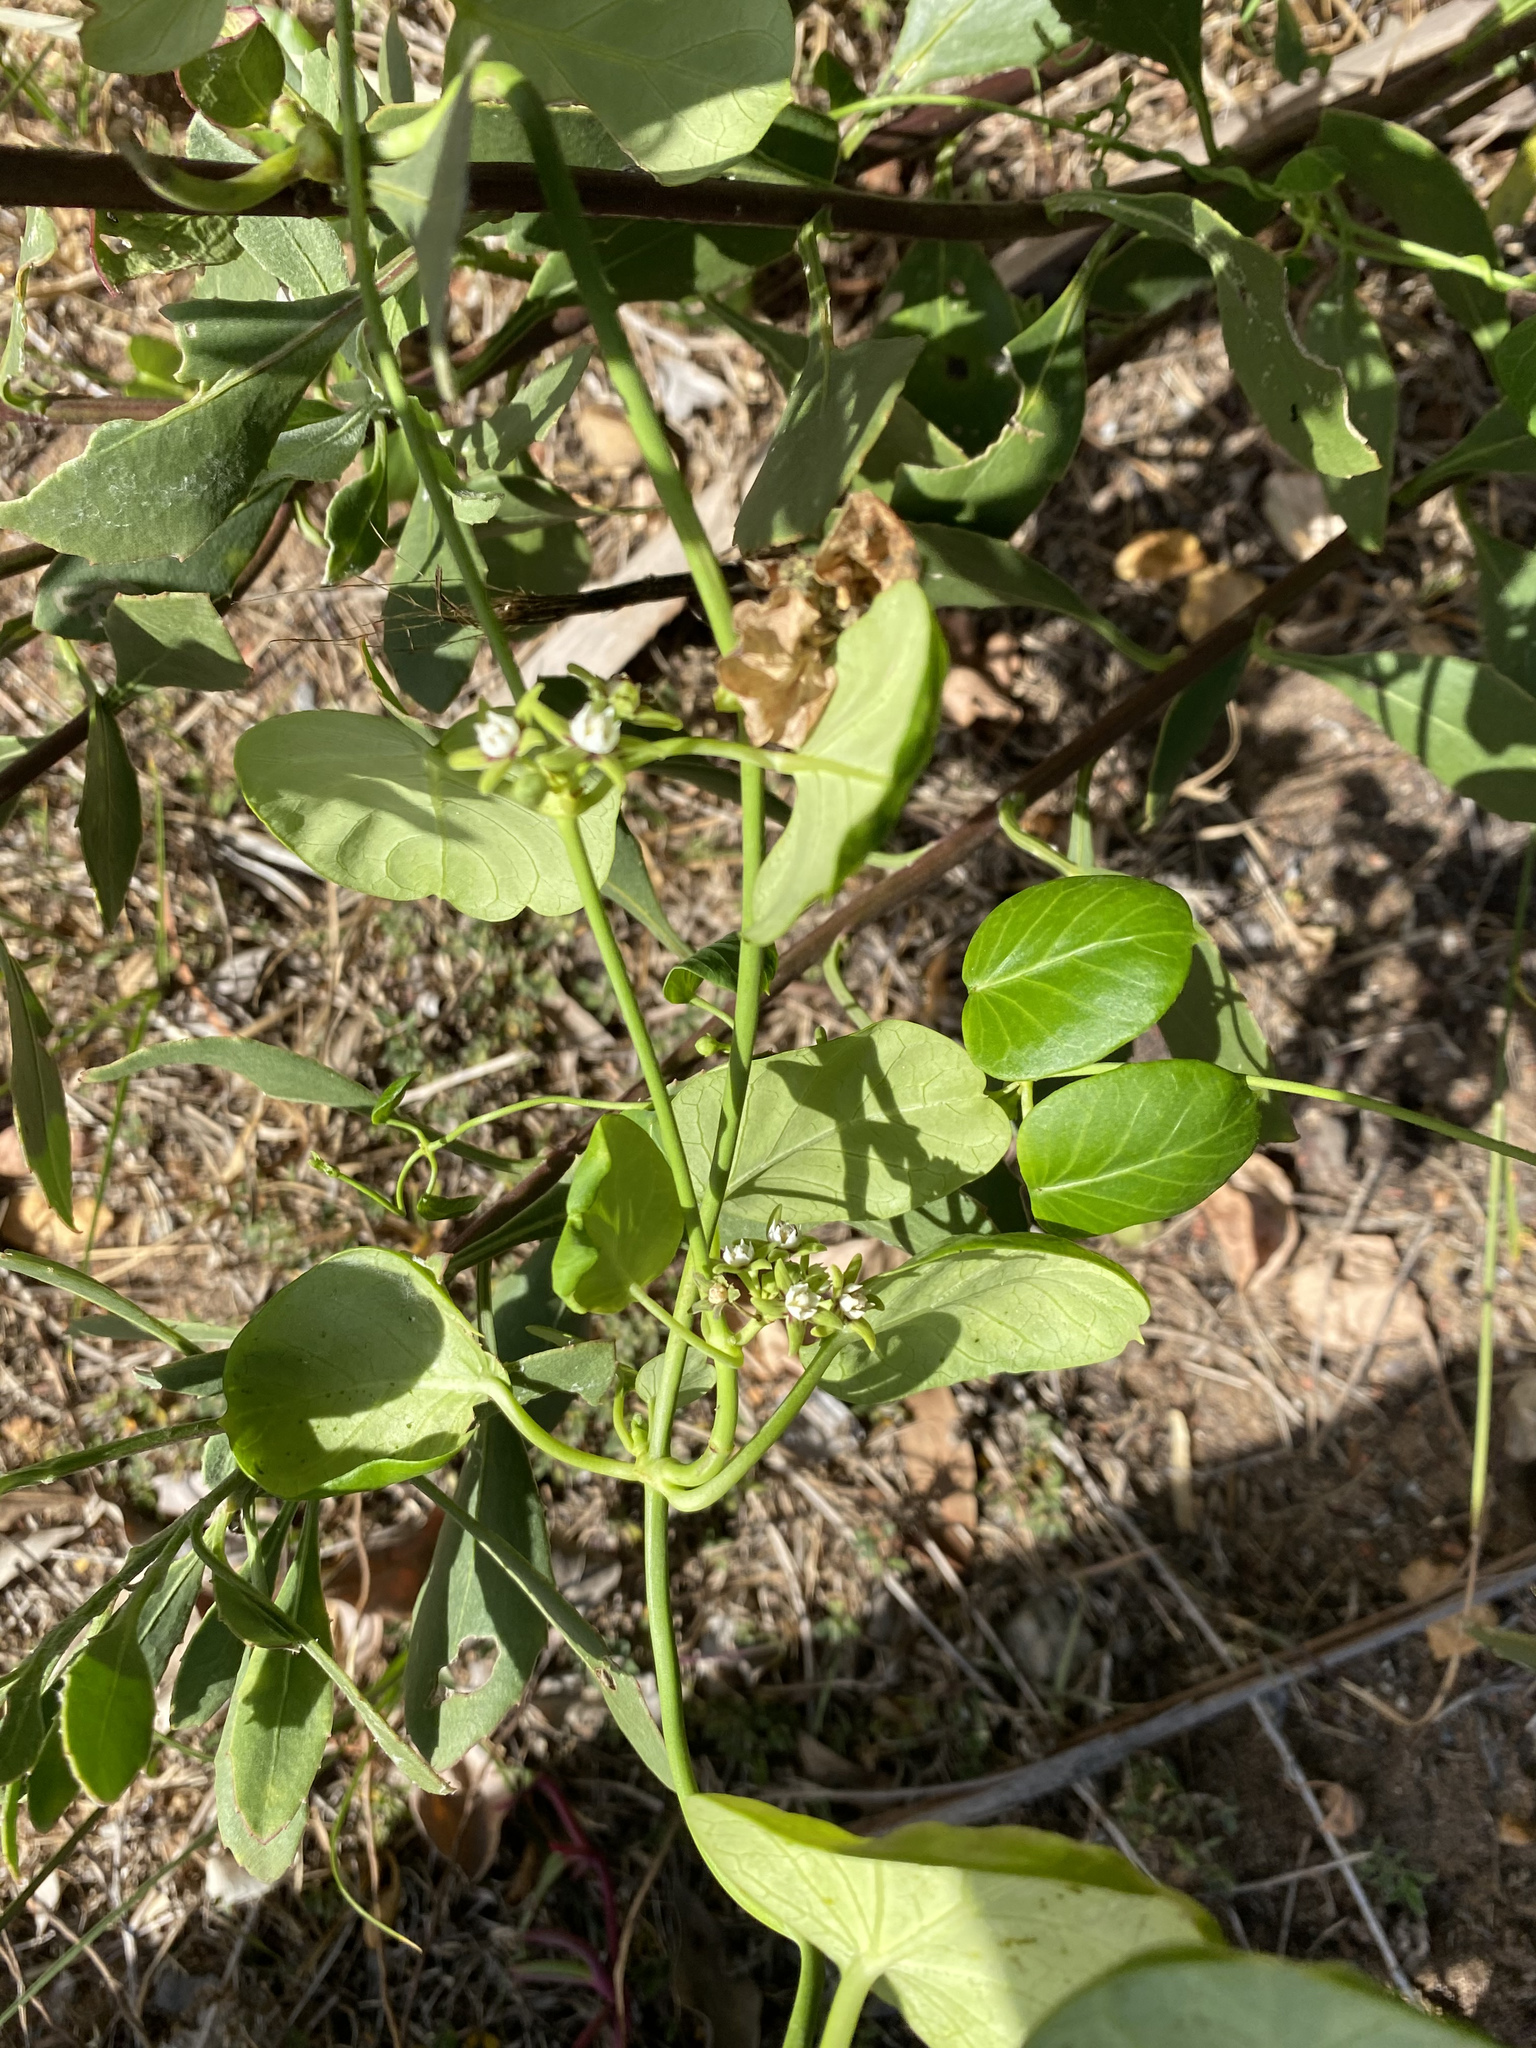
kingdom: Plantae
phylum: Tracheophyta
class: Magnoliopsida
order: Gentianales
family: Apocynaceae
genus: Cynanchum
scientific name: Cynanchum obtusifolium
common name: Monkey-rope
